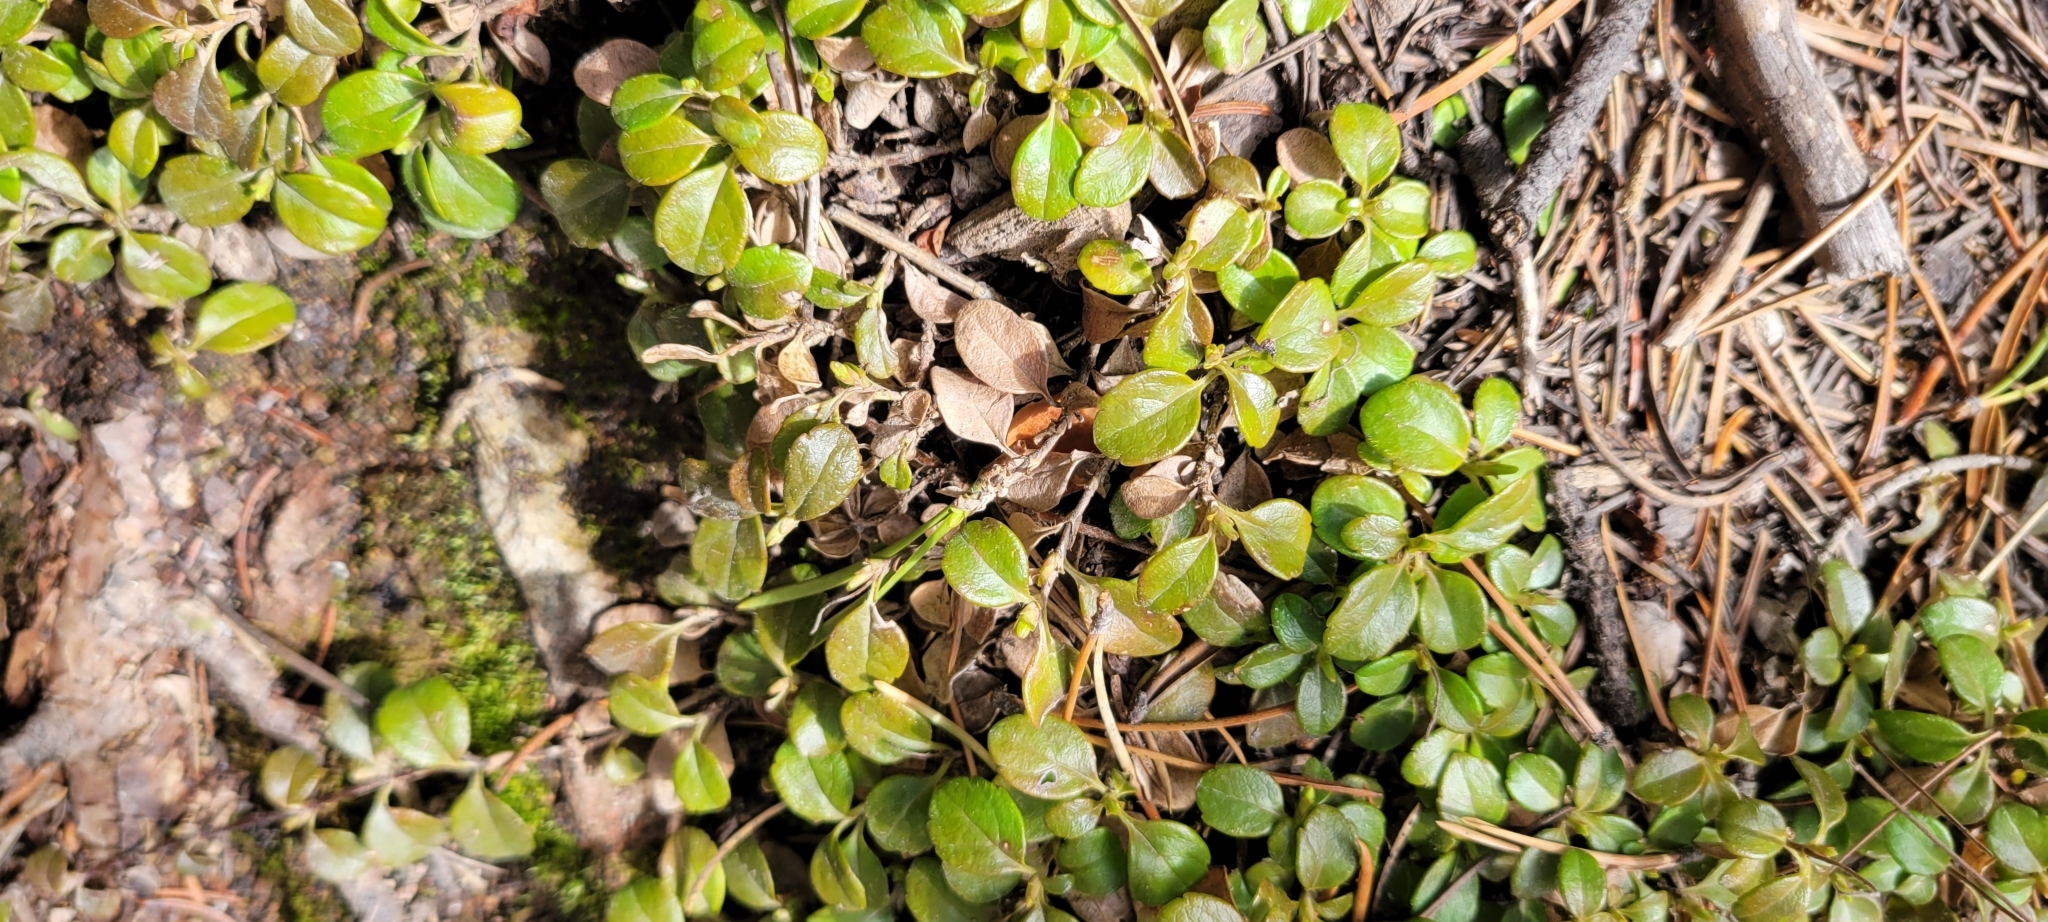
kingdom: Plantae
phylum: Tracheophyta
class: Magnoliopsida
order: Dipsacales
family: Caprifoliaceae
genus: Linnaea
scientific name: Linnaea borealis
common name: Twinflower
